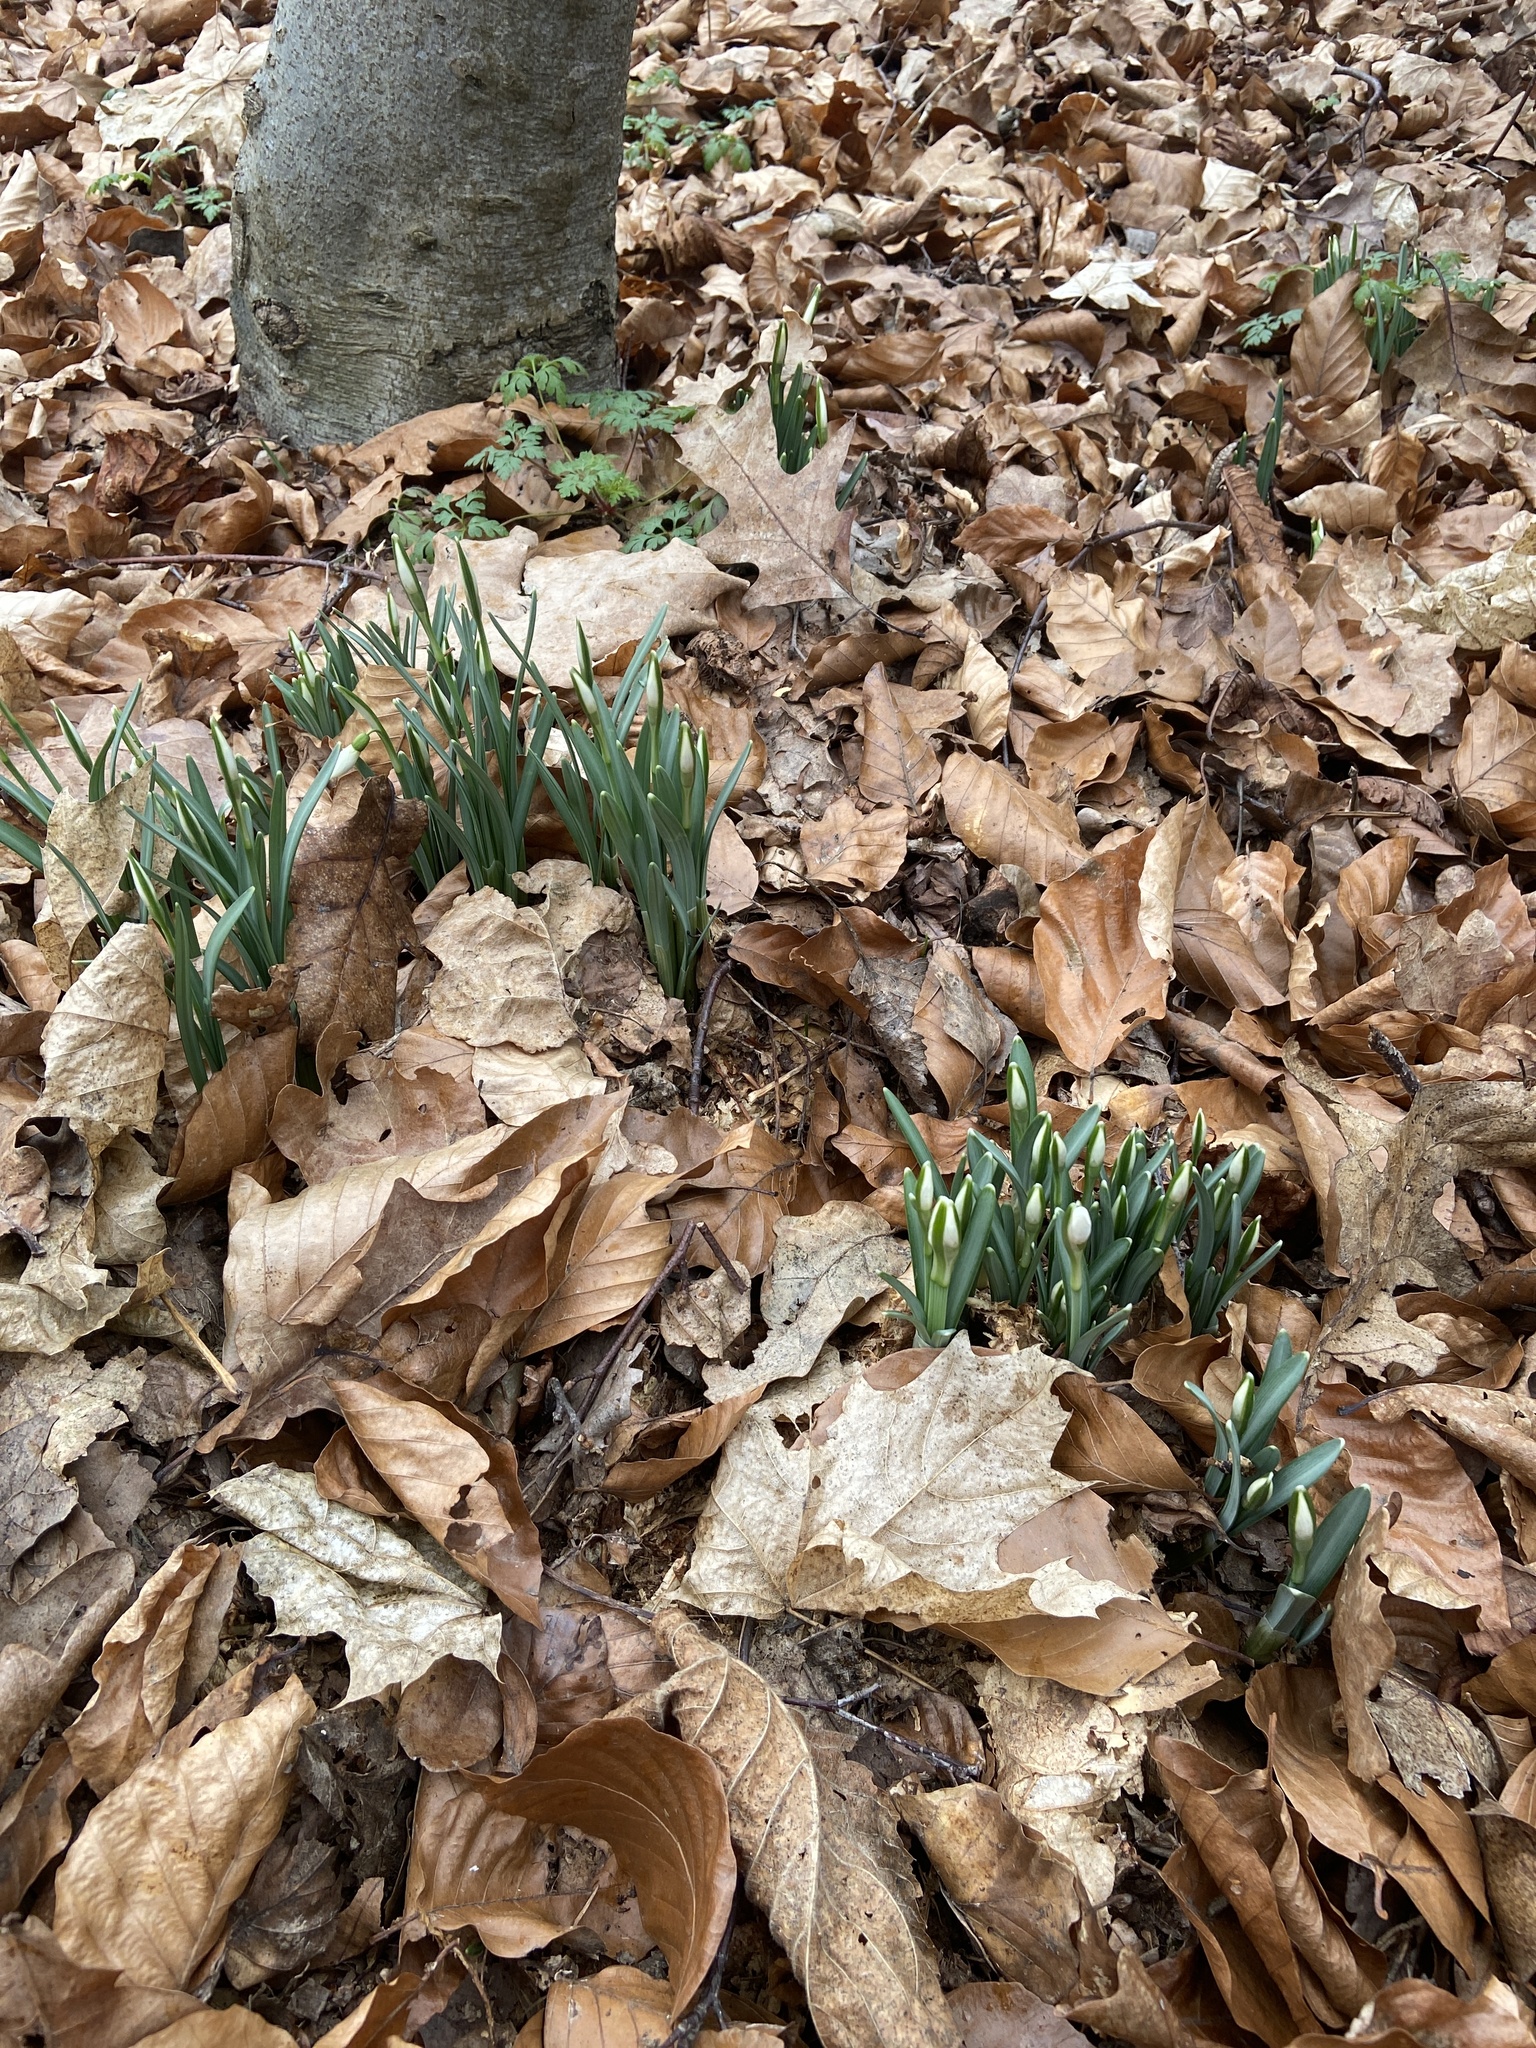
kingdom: Plantae
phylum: Tracheophyta
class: Liliopsida
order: Asparagales
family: Amaryllidaceae
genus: Galanthus
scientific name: Galanthus nivalis
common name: Snowdrop
